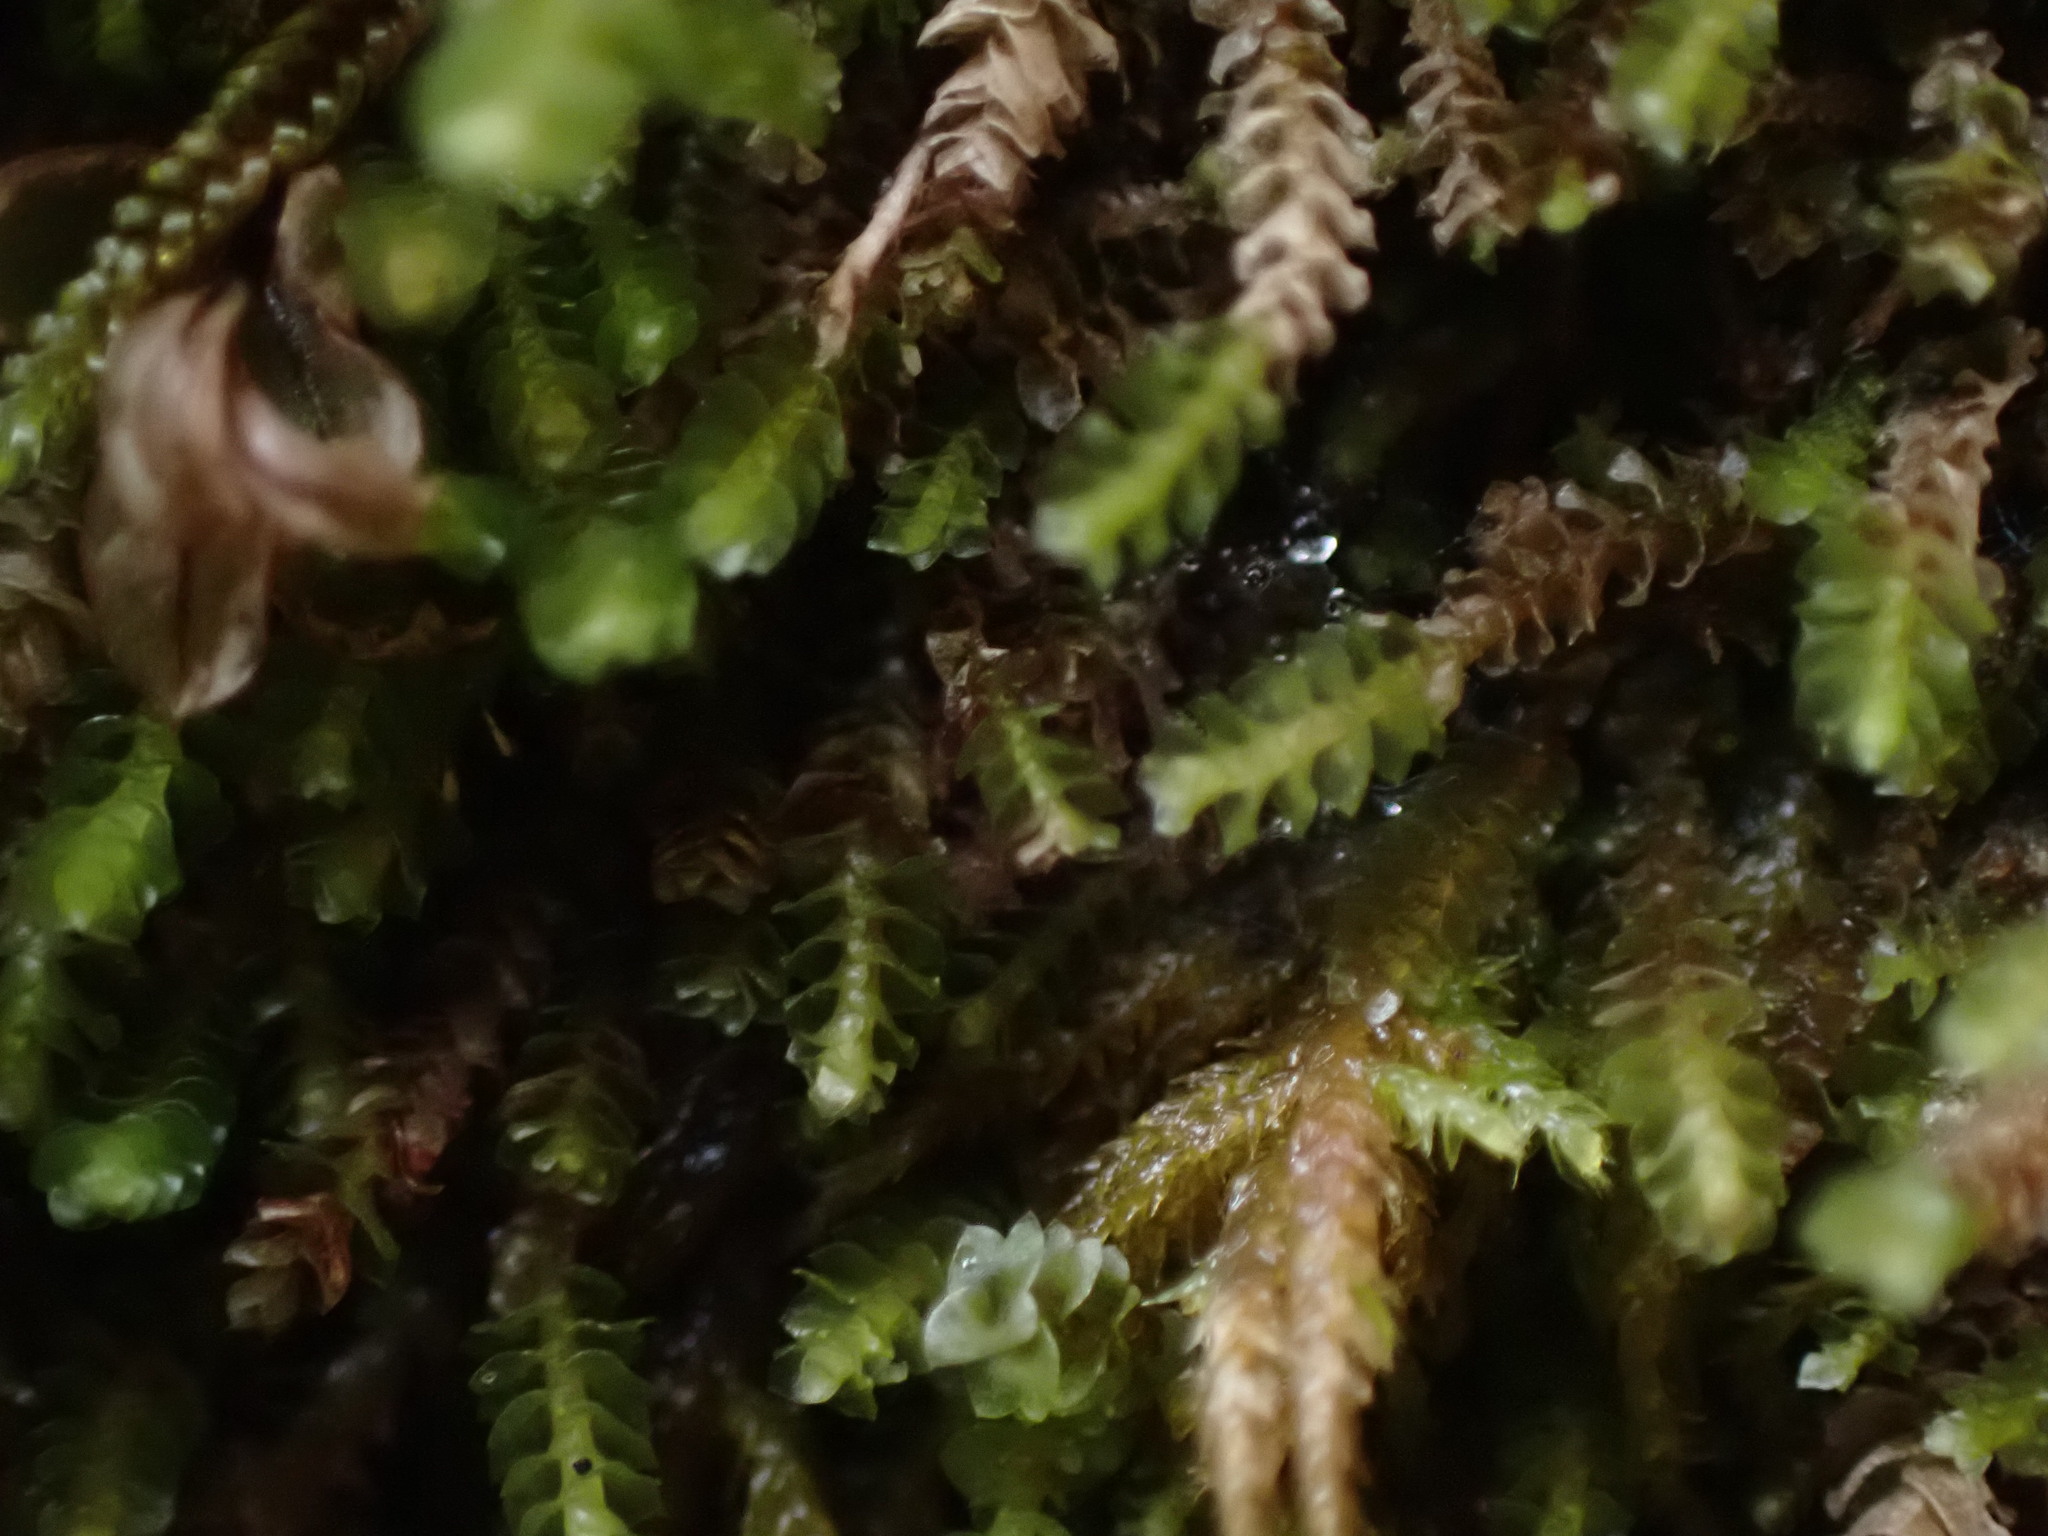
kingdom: Plantae
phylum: Marchantiophyta
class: Jungermanniopsida
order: Jungermanniales
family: Gymnomitriaceae
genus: Marsupella
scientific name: Marsupella emarginata
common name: Notched rustwort
